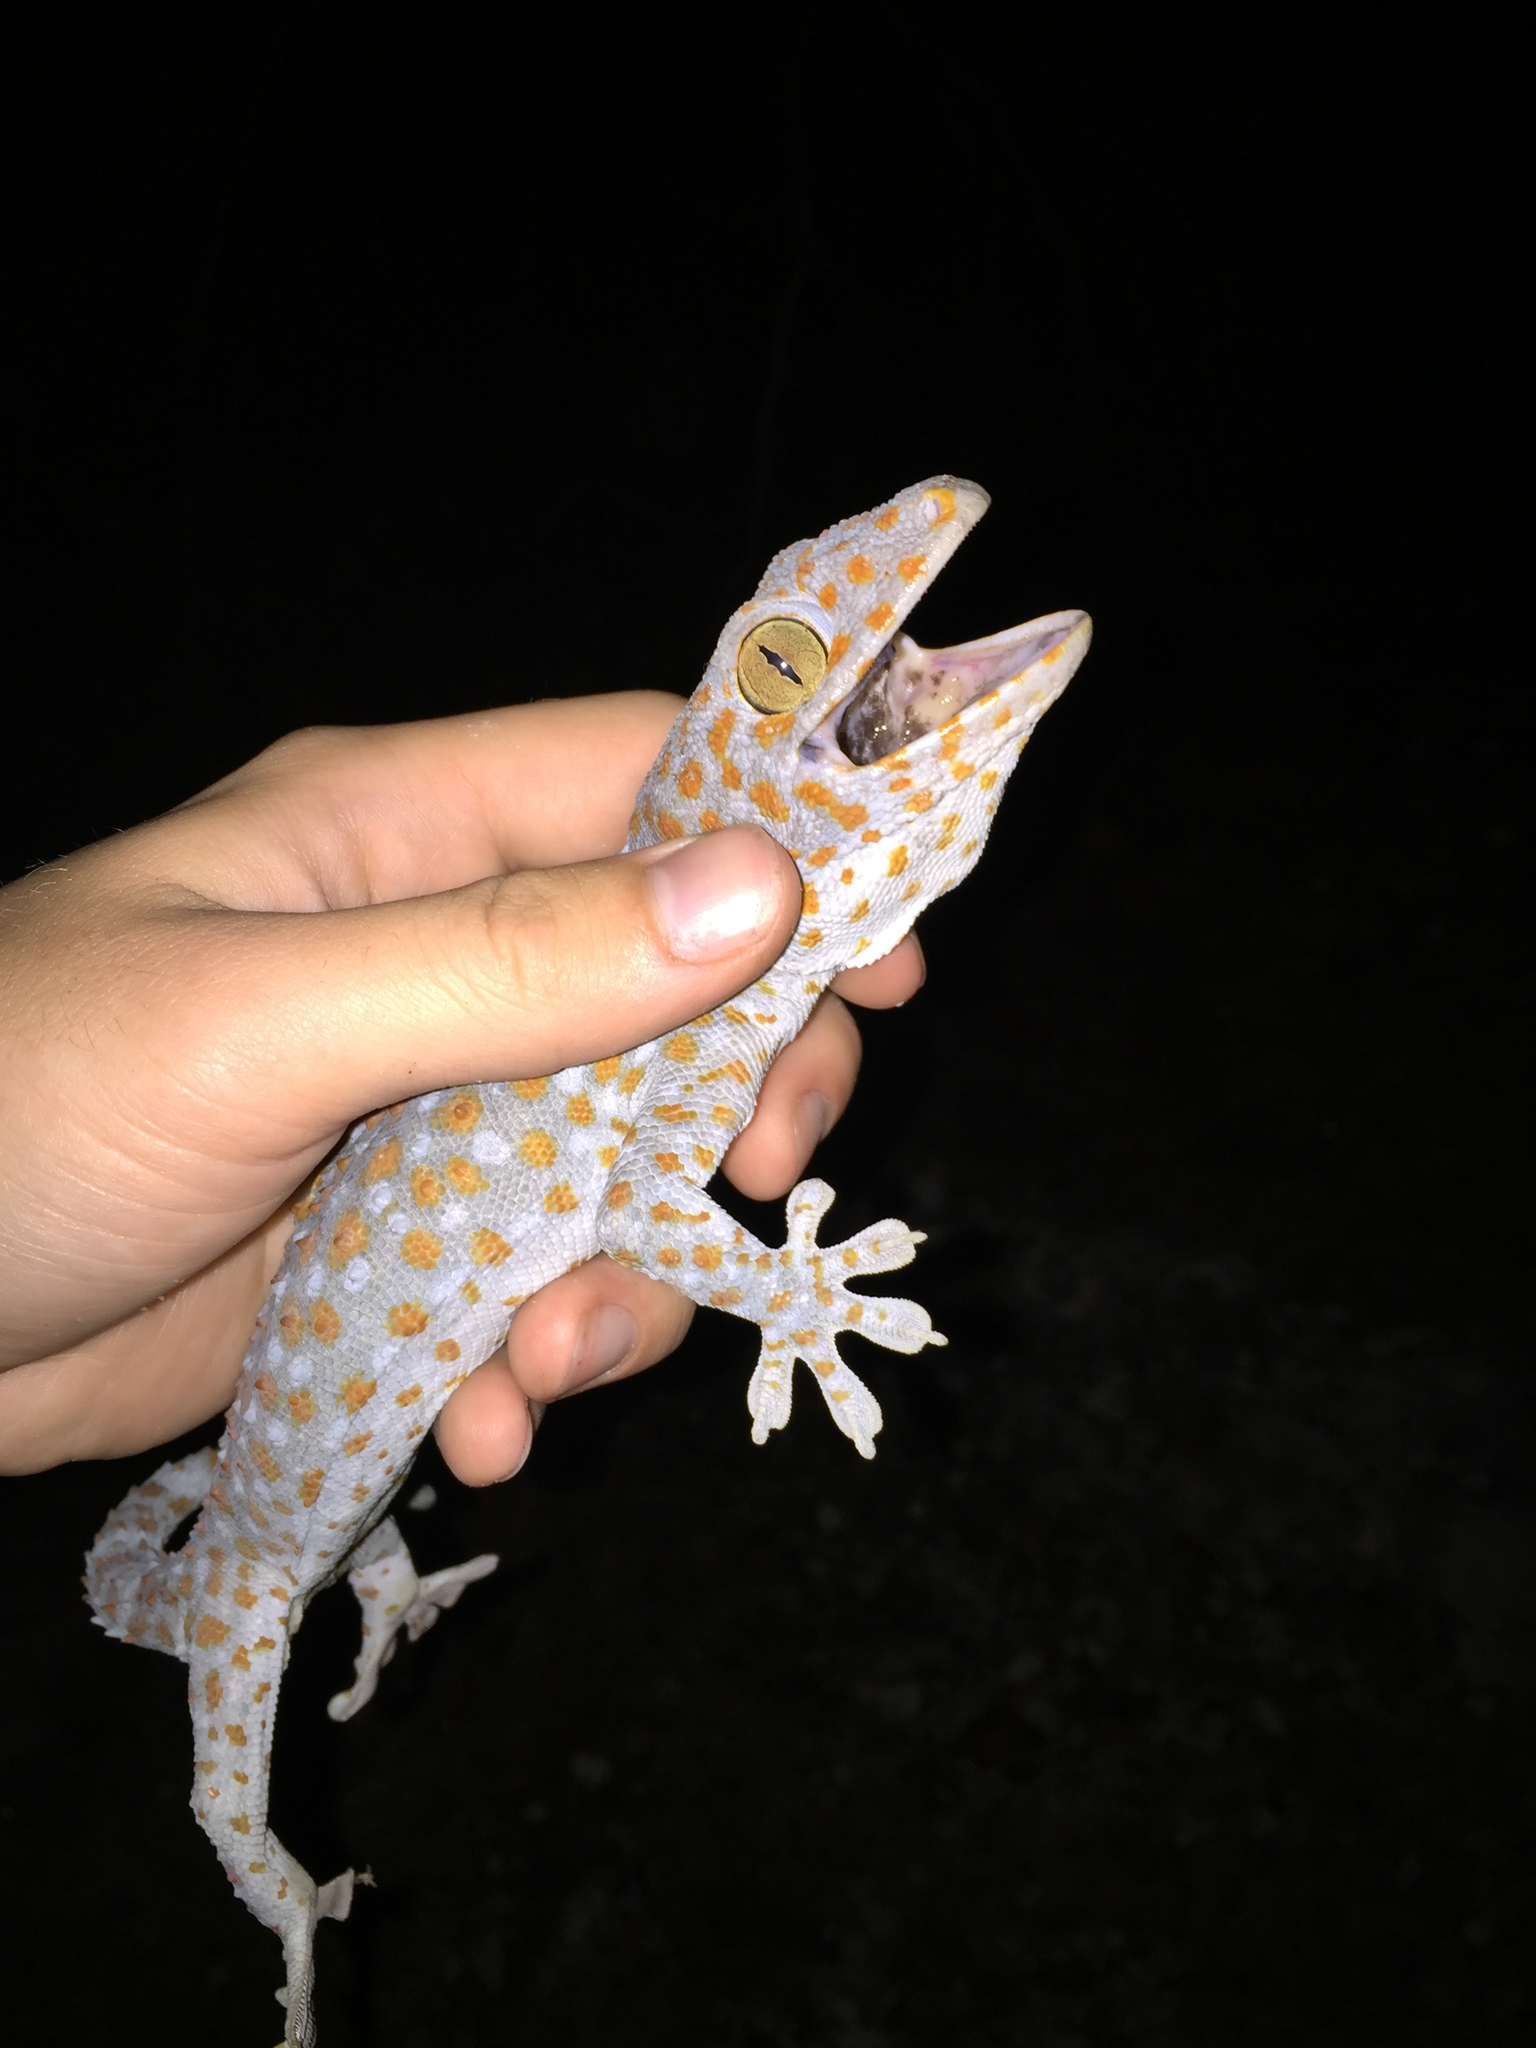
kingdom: Animalia
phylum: Chordata
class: Squamata
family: Gekkonidae
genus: Gekko
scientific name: Gekko gecko
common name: Tokay gecko
